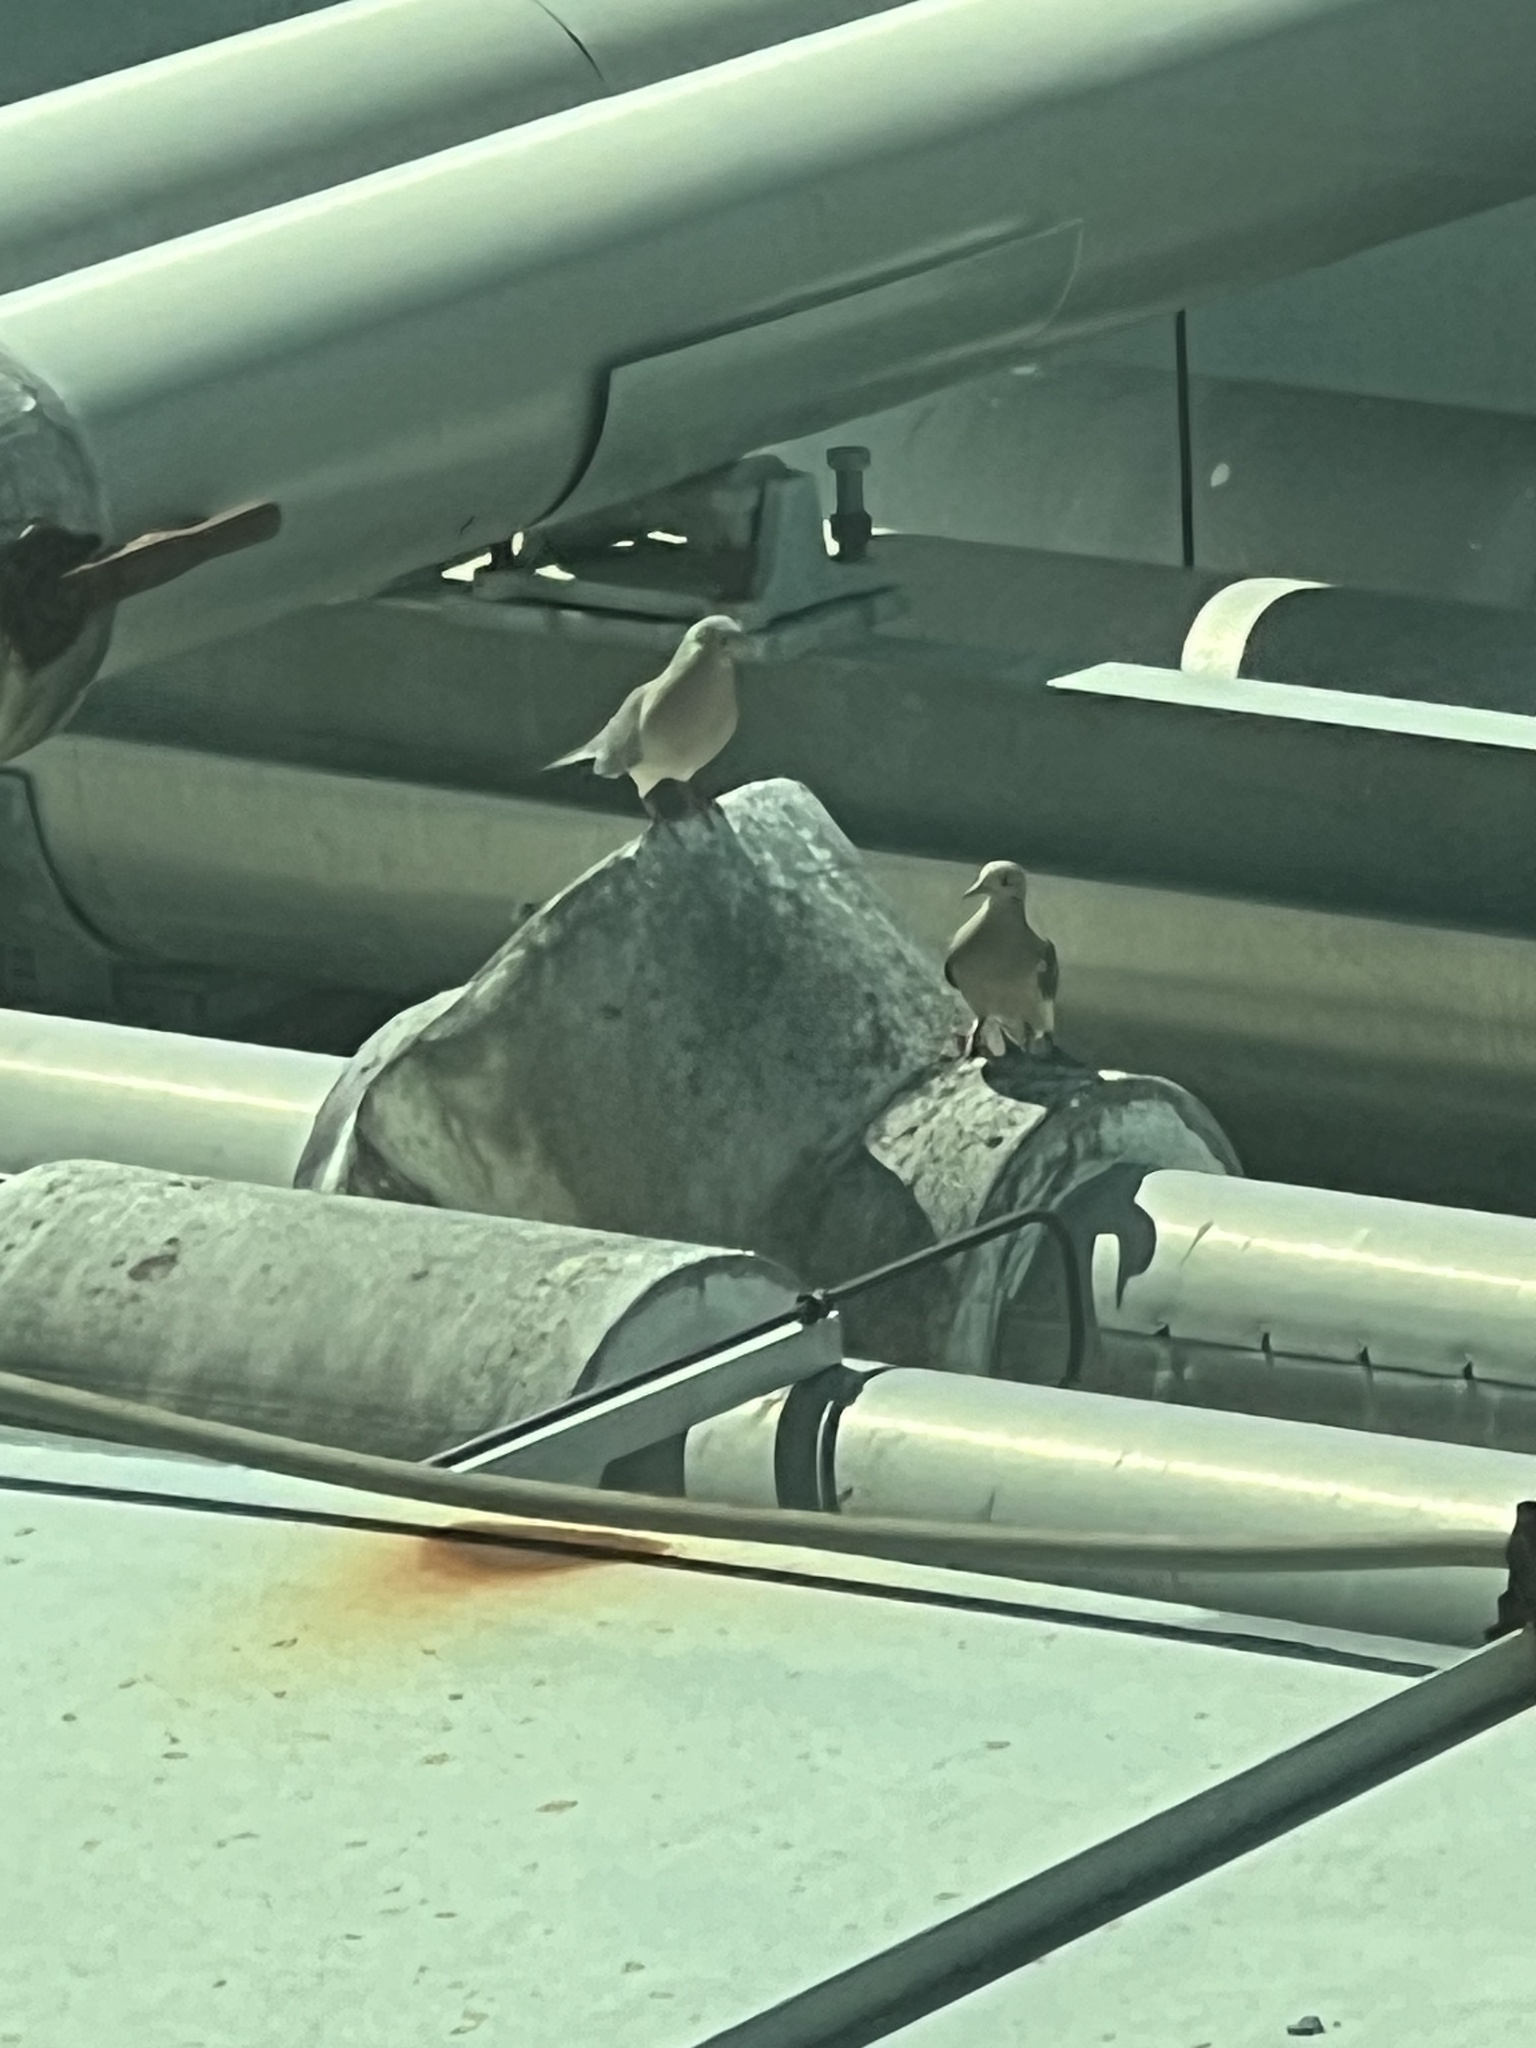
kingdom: Animalia
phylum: Chordata
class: Aves
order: Columbiformes
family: Columbidae
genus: Zenaida
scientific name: Zenaida macroura
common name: Mourning dove
